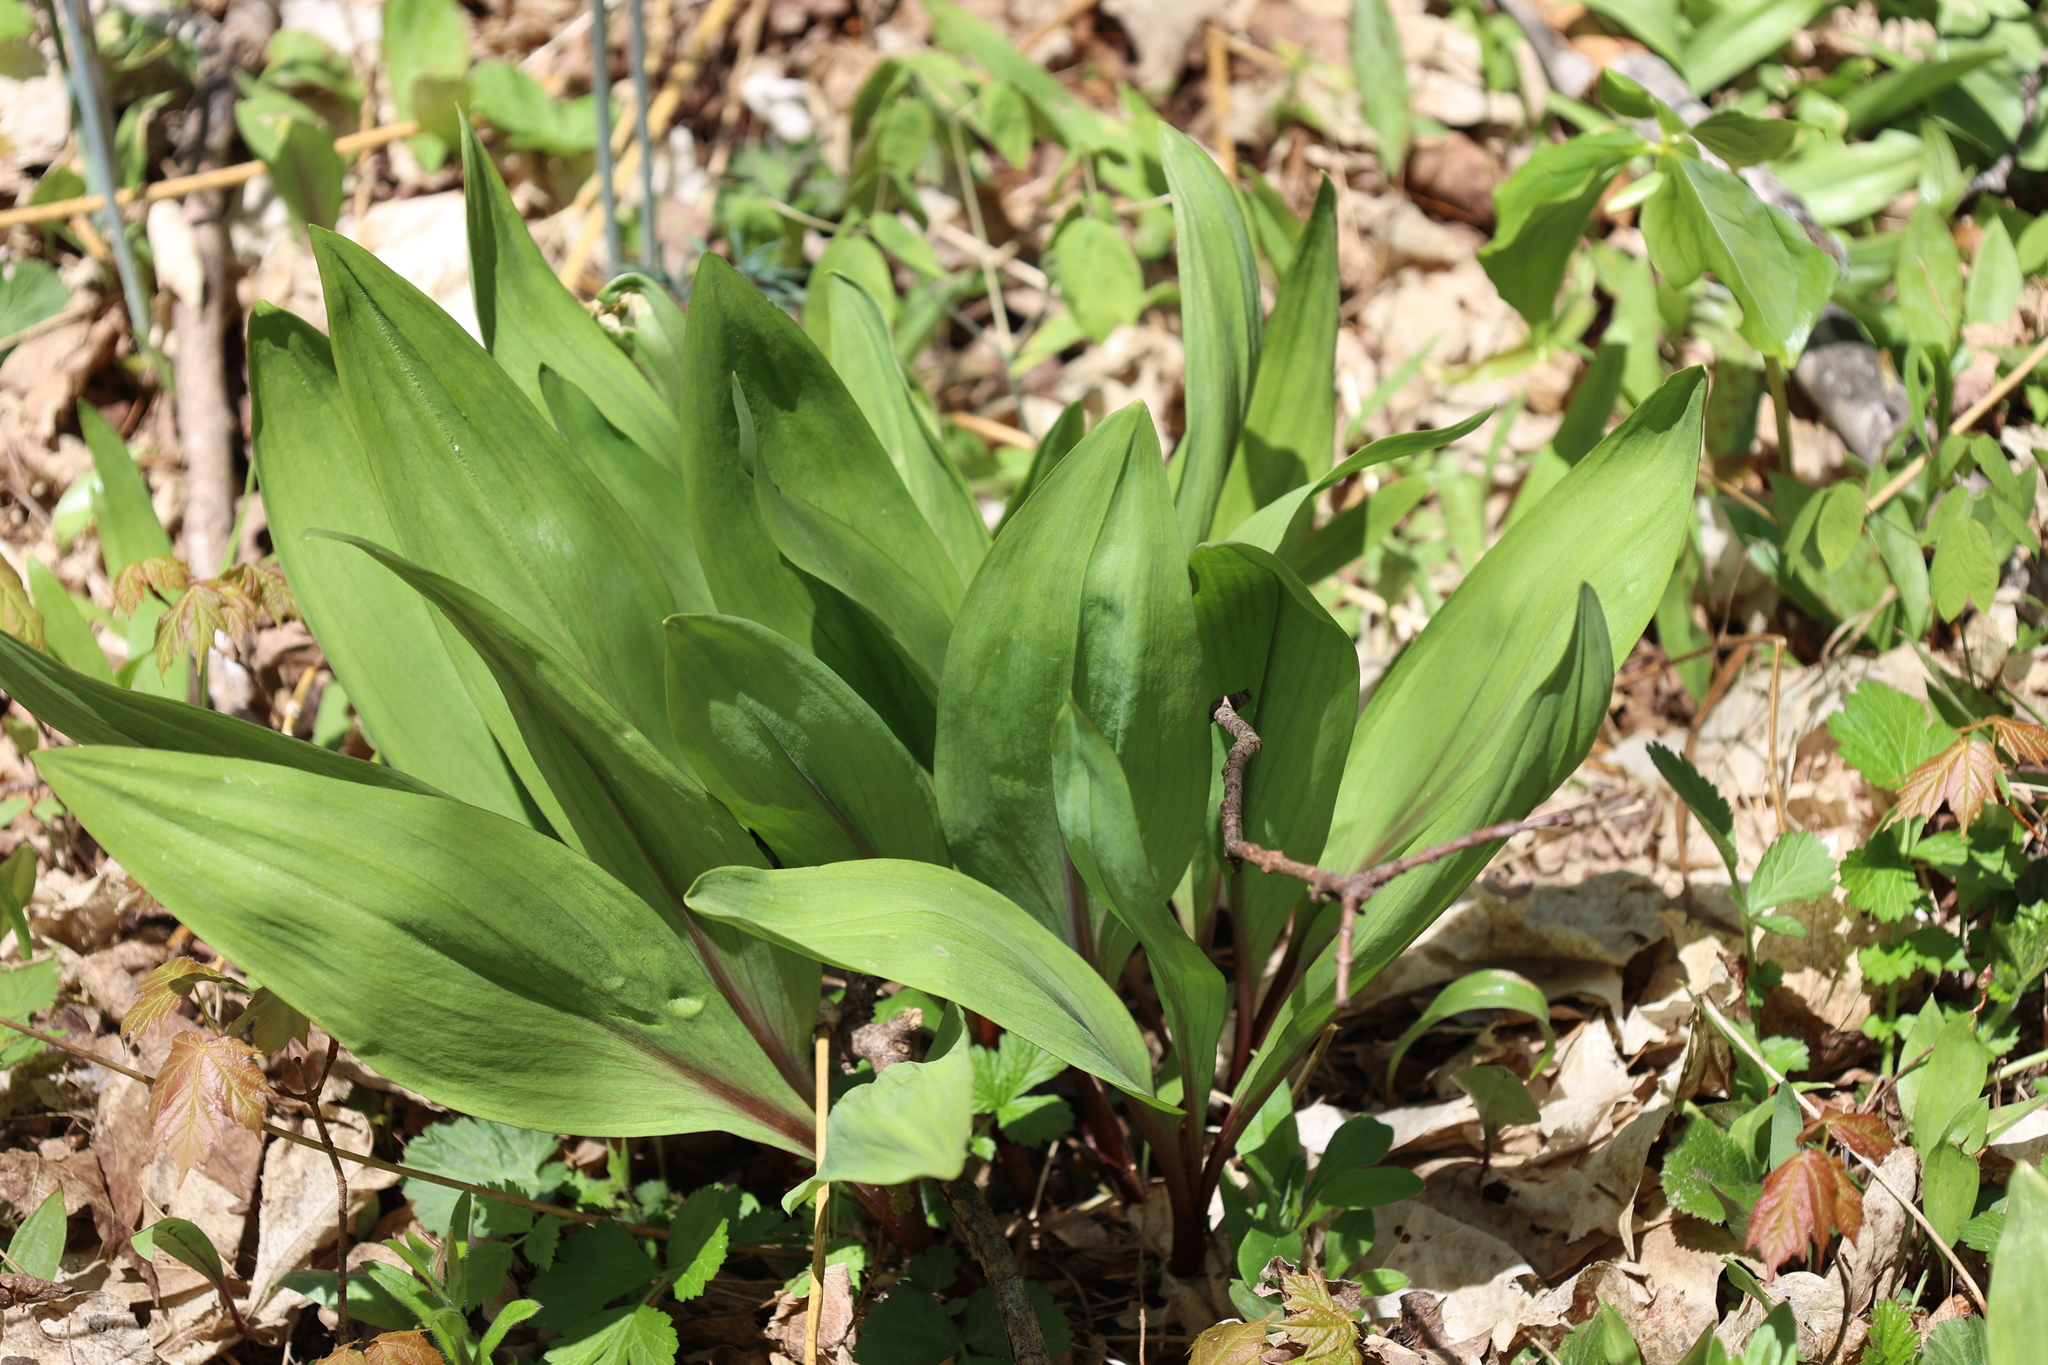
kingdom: Plantae
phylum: Tracheophyta
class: Liliopsida
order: Asparagales
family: Amaryllidaceae
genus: Allium
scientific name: Allium tricoccum
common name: Ramp
